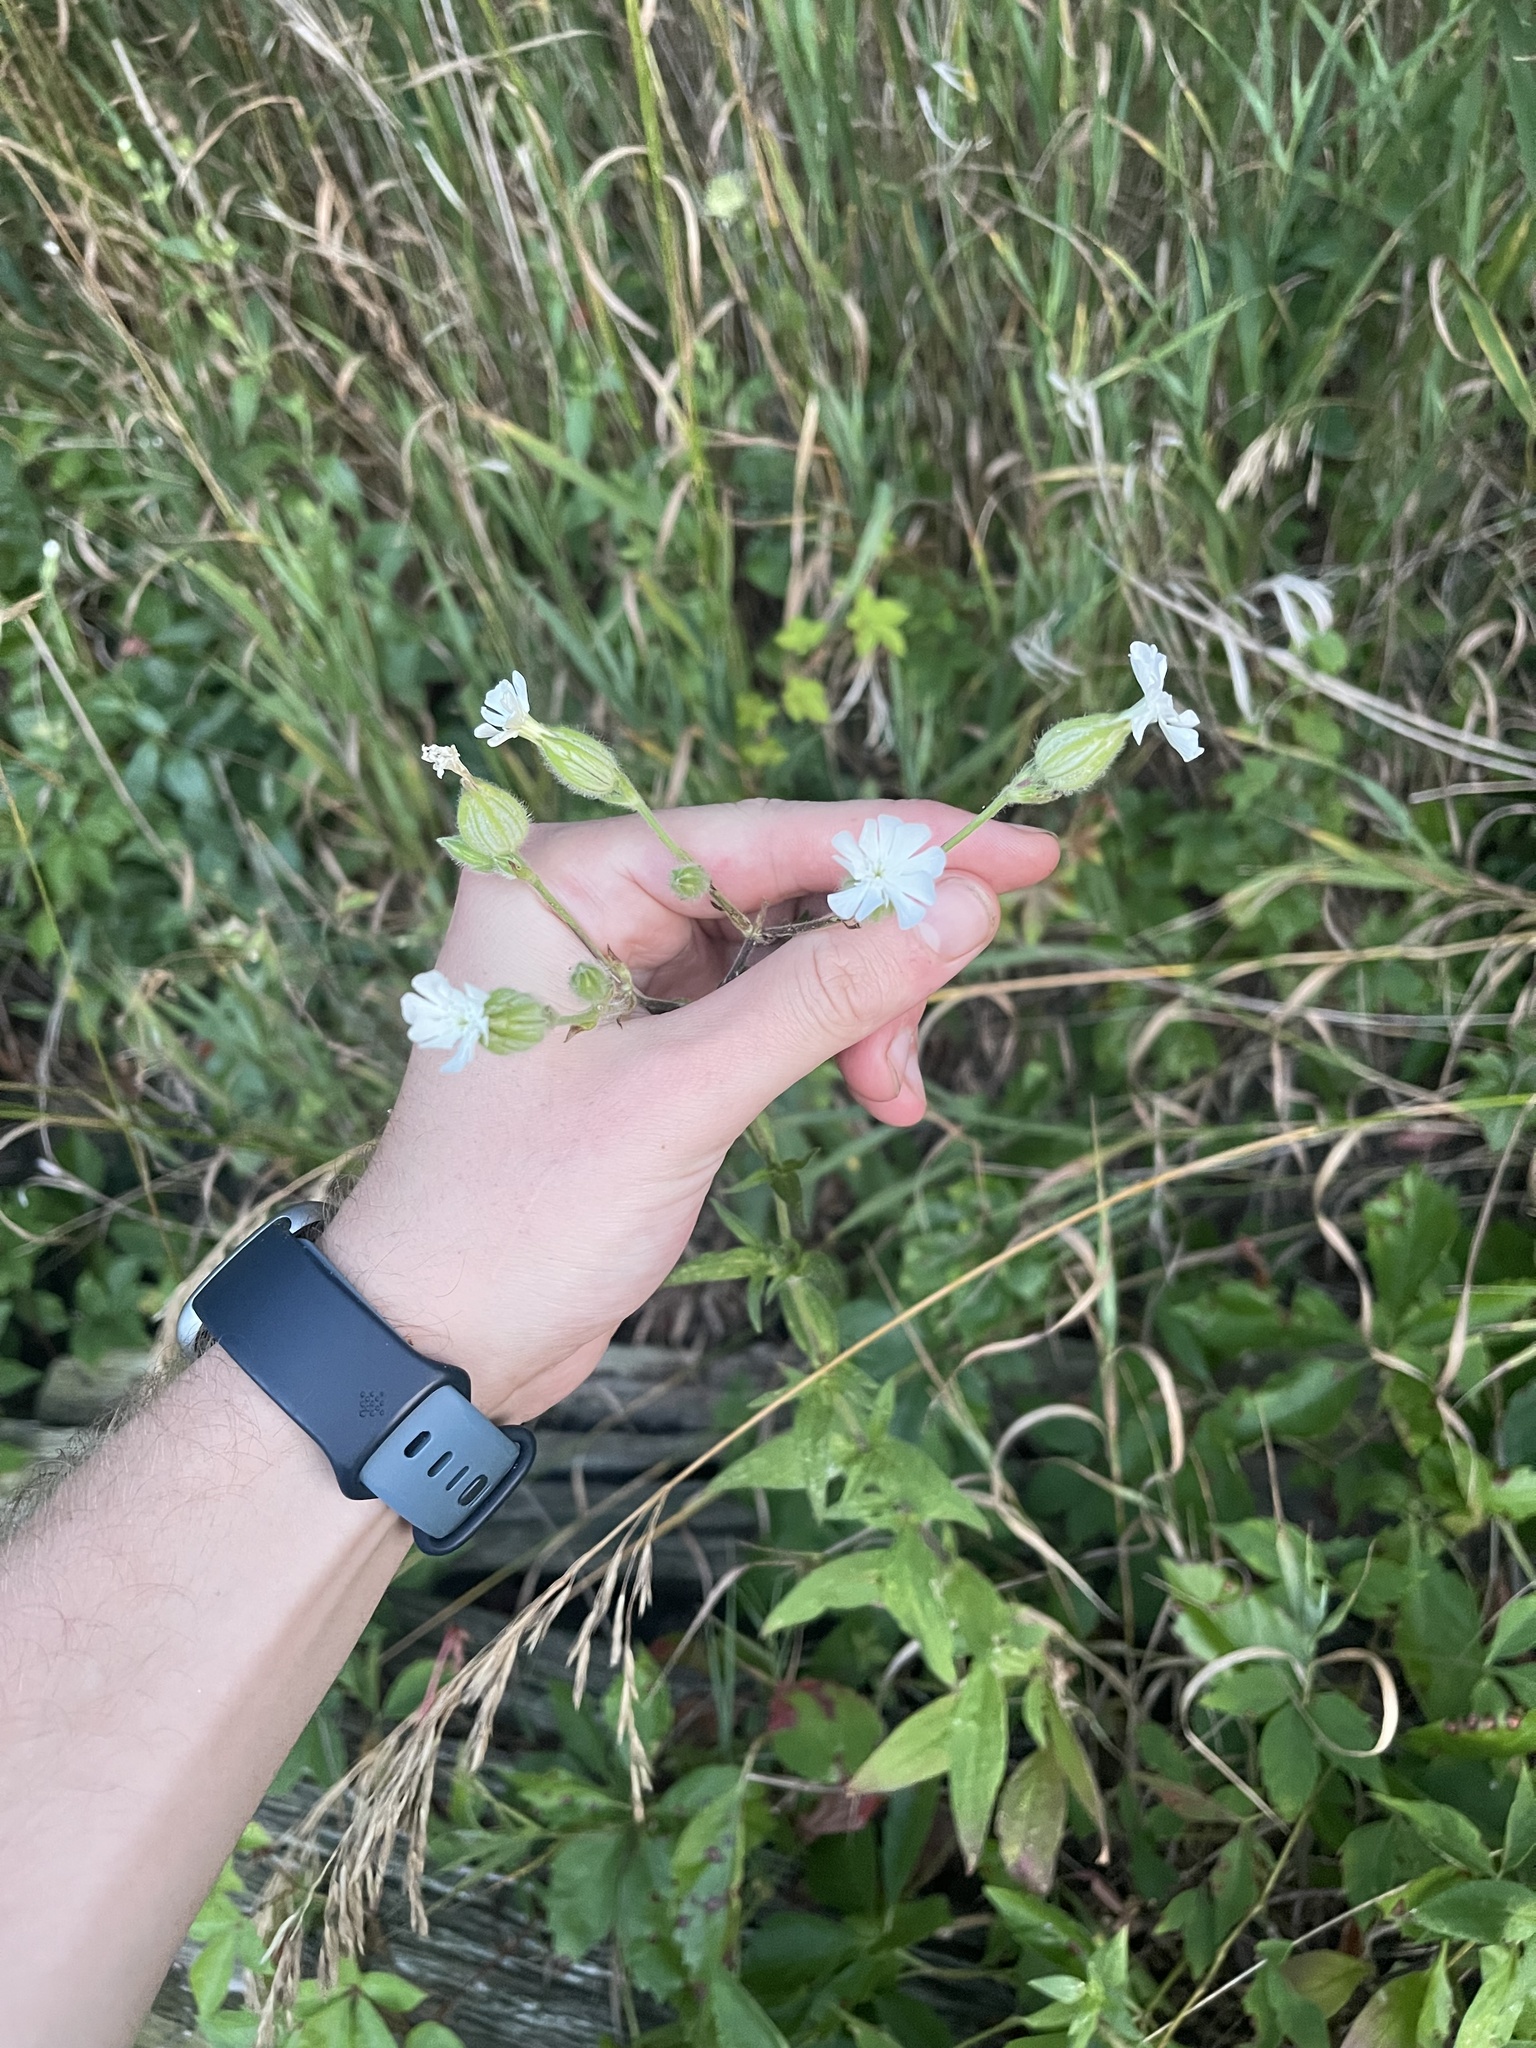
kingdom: Plantae
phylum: Tracheophyta
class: Magnoliopsida
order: Caryophyllales
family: Caryophyllaceae
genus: Silene
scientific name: Silene latifolia
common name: White campion
